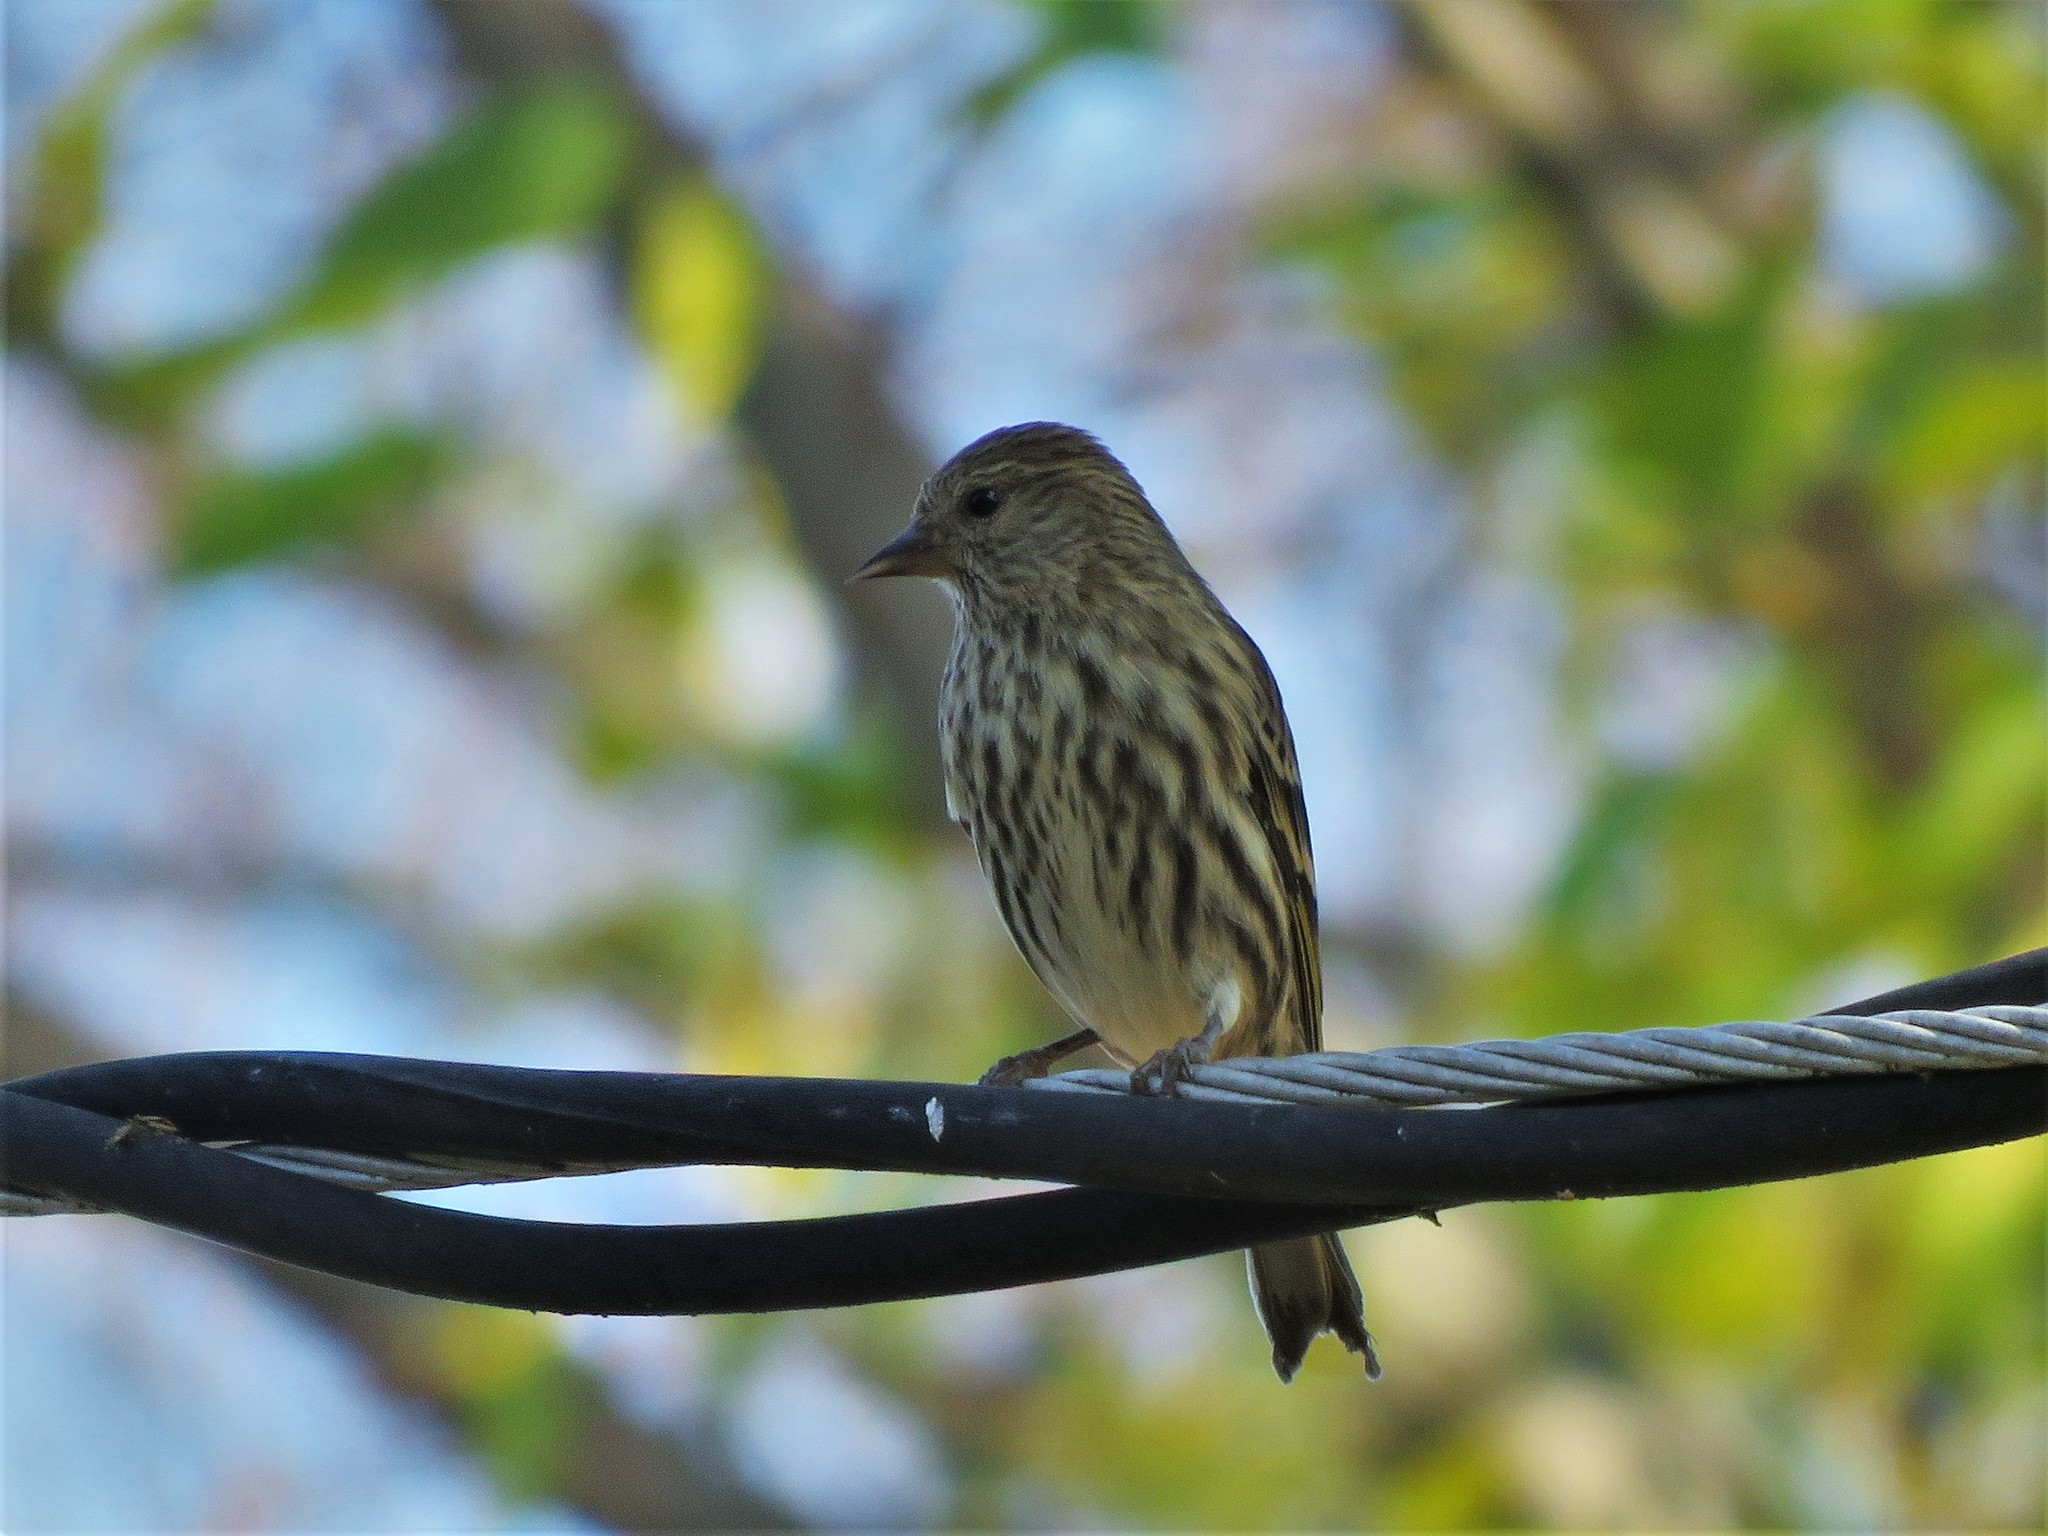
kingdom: Animalia
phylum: Chordata
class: Aves
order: Passeriformes
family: Fringillidae
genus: Spinus
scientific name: Spinus pinus
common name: Pine siskin
